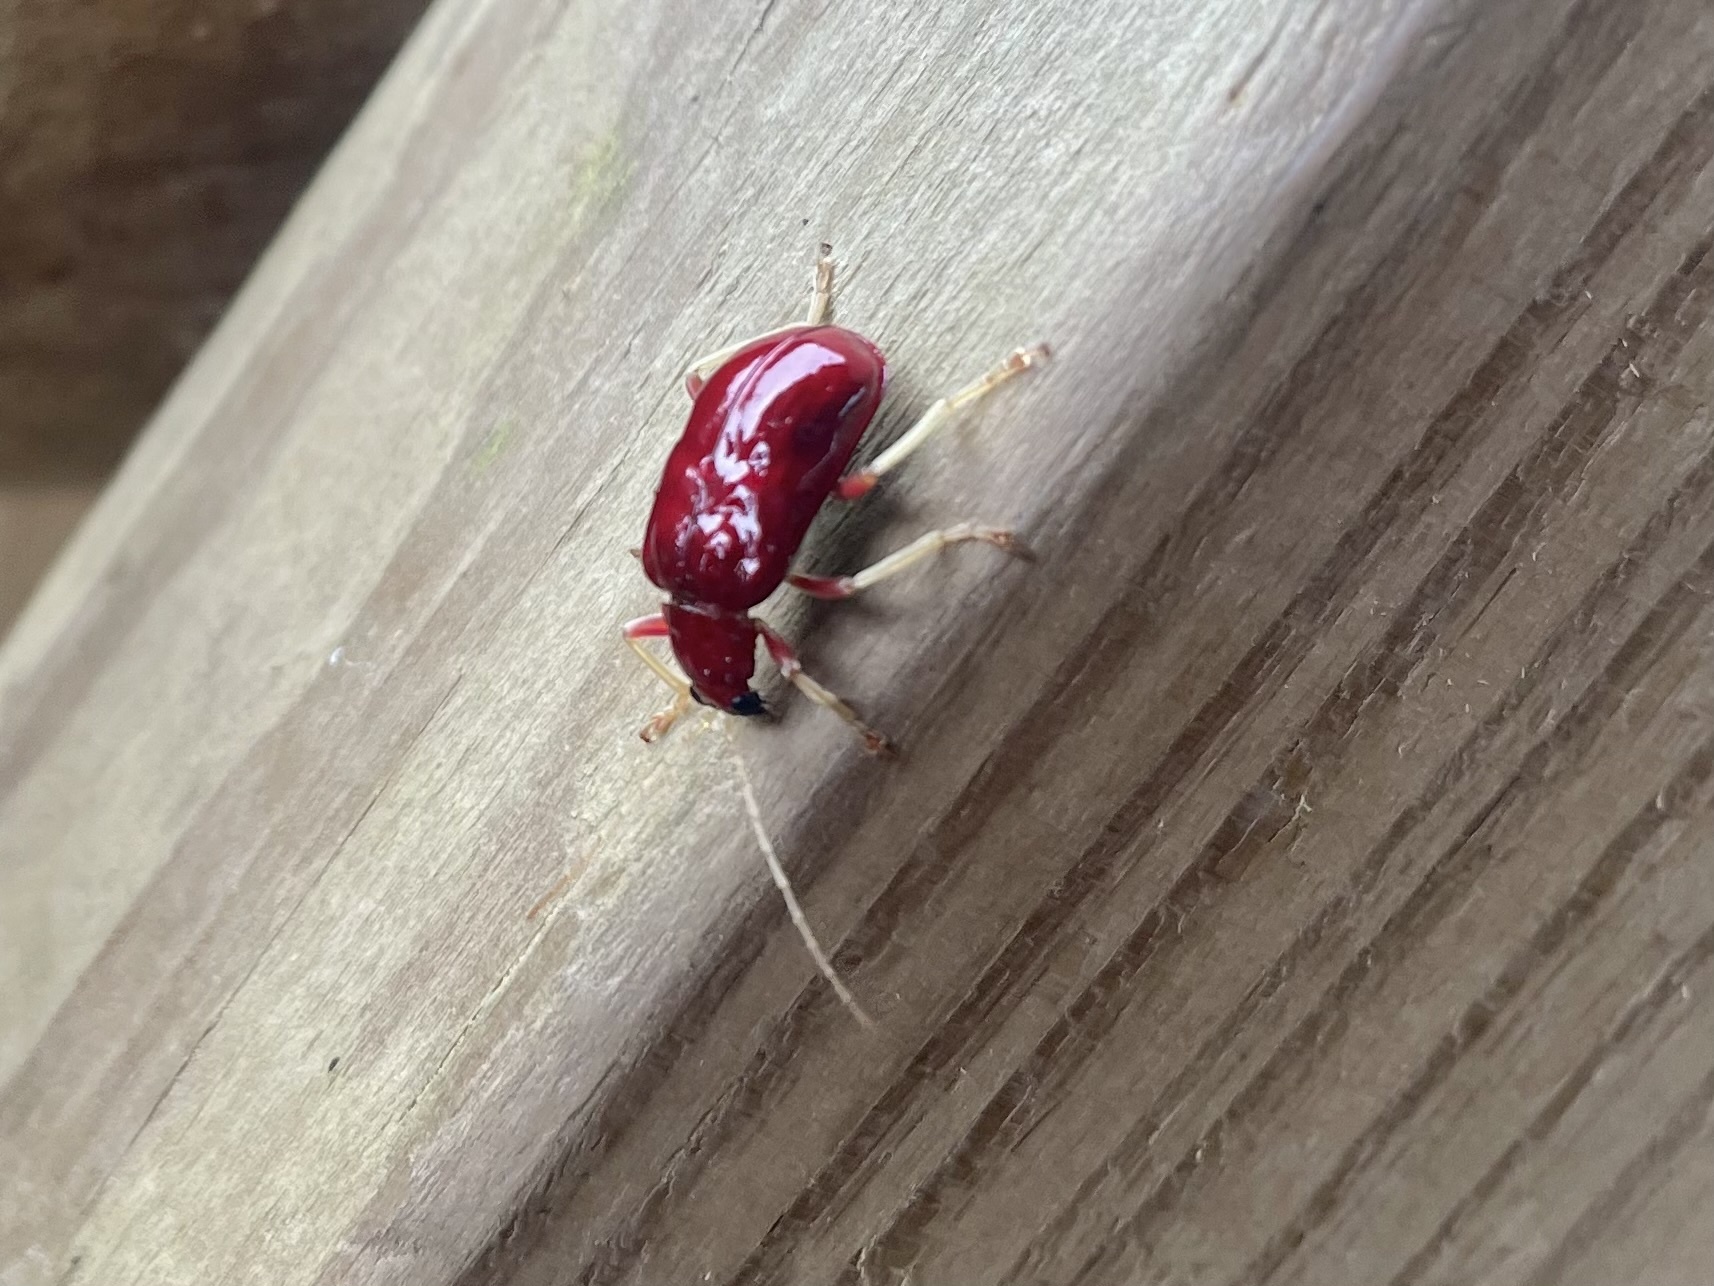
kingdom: Animalia
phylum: Arthropoda
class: Insecta
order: Coleoptera
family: Chrysomelidae
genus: Paratriarius
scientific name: Paratriarius coccineus
